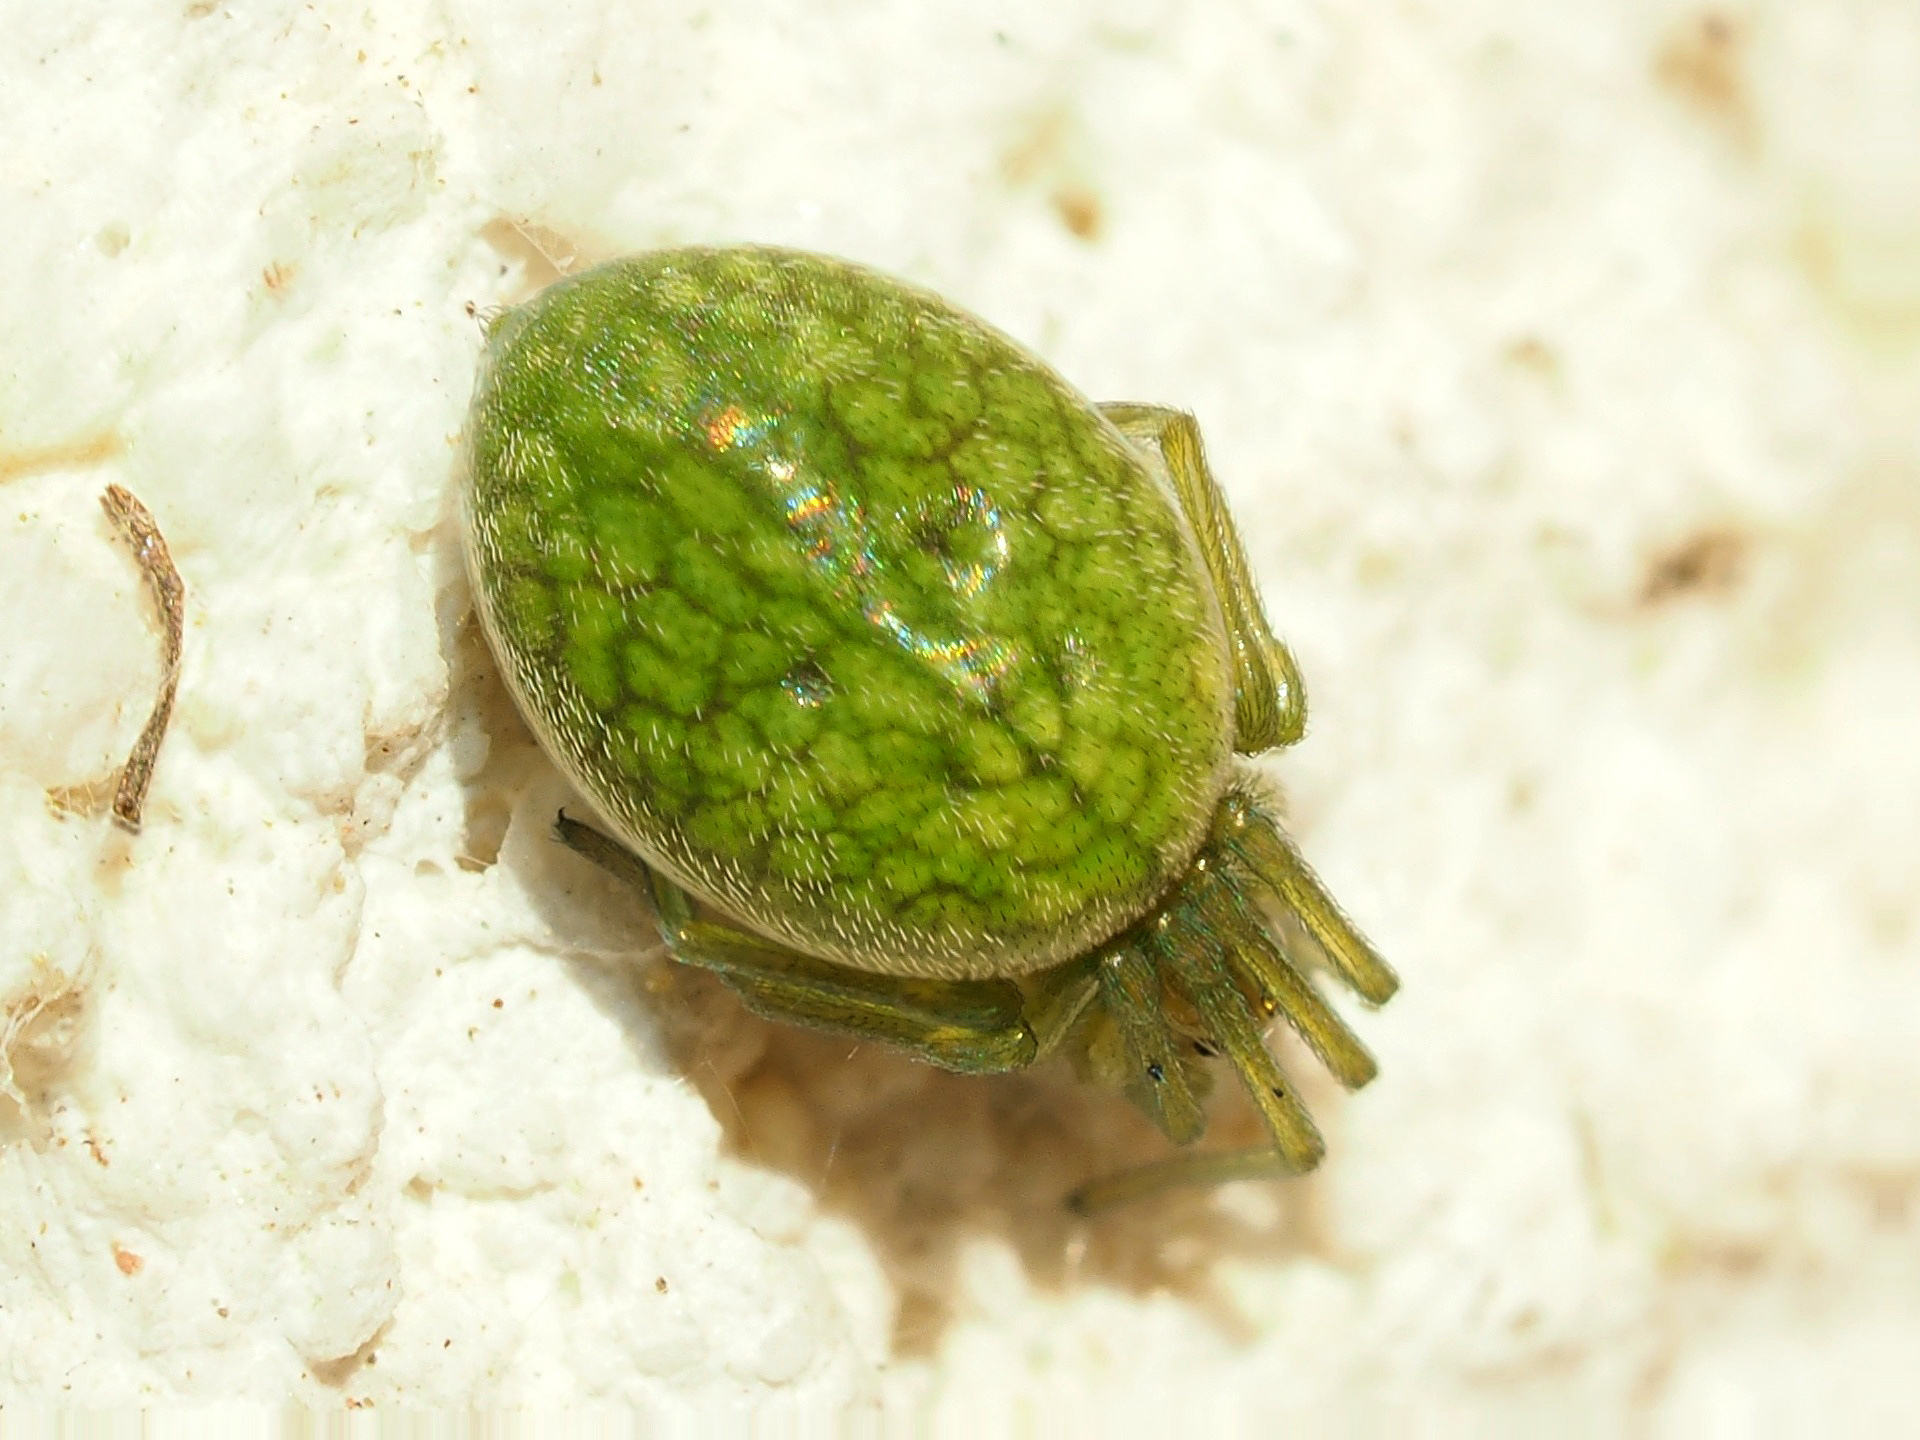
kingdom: Animalia
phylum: Arthropoda
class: Arachnida
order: Araneae
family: Dictynidae
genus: Nigma
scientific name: Nigma walckenaeri
